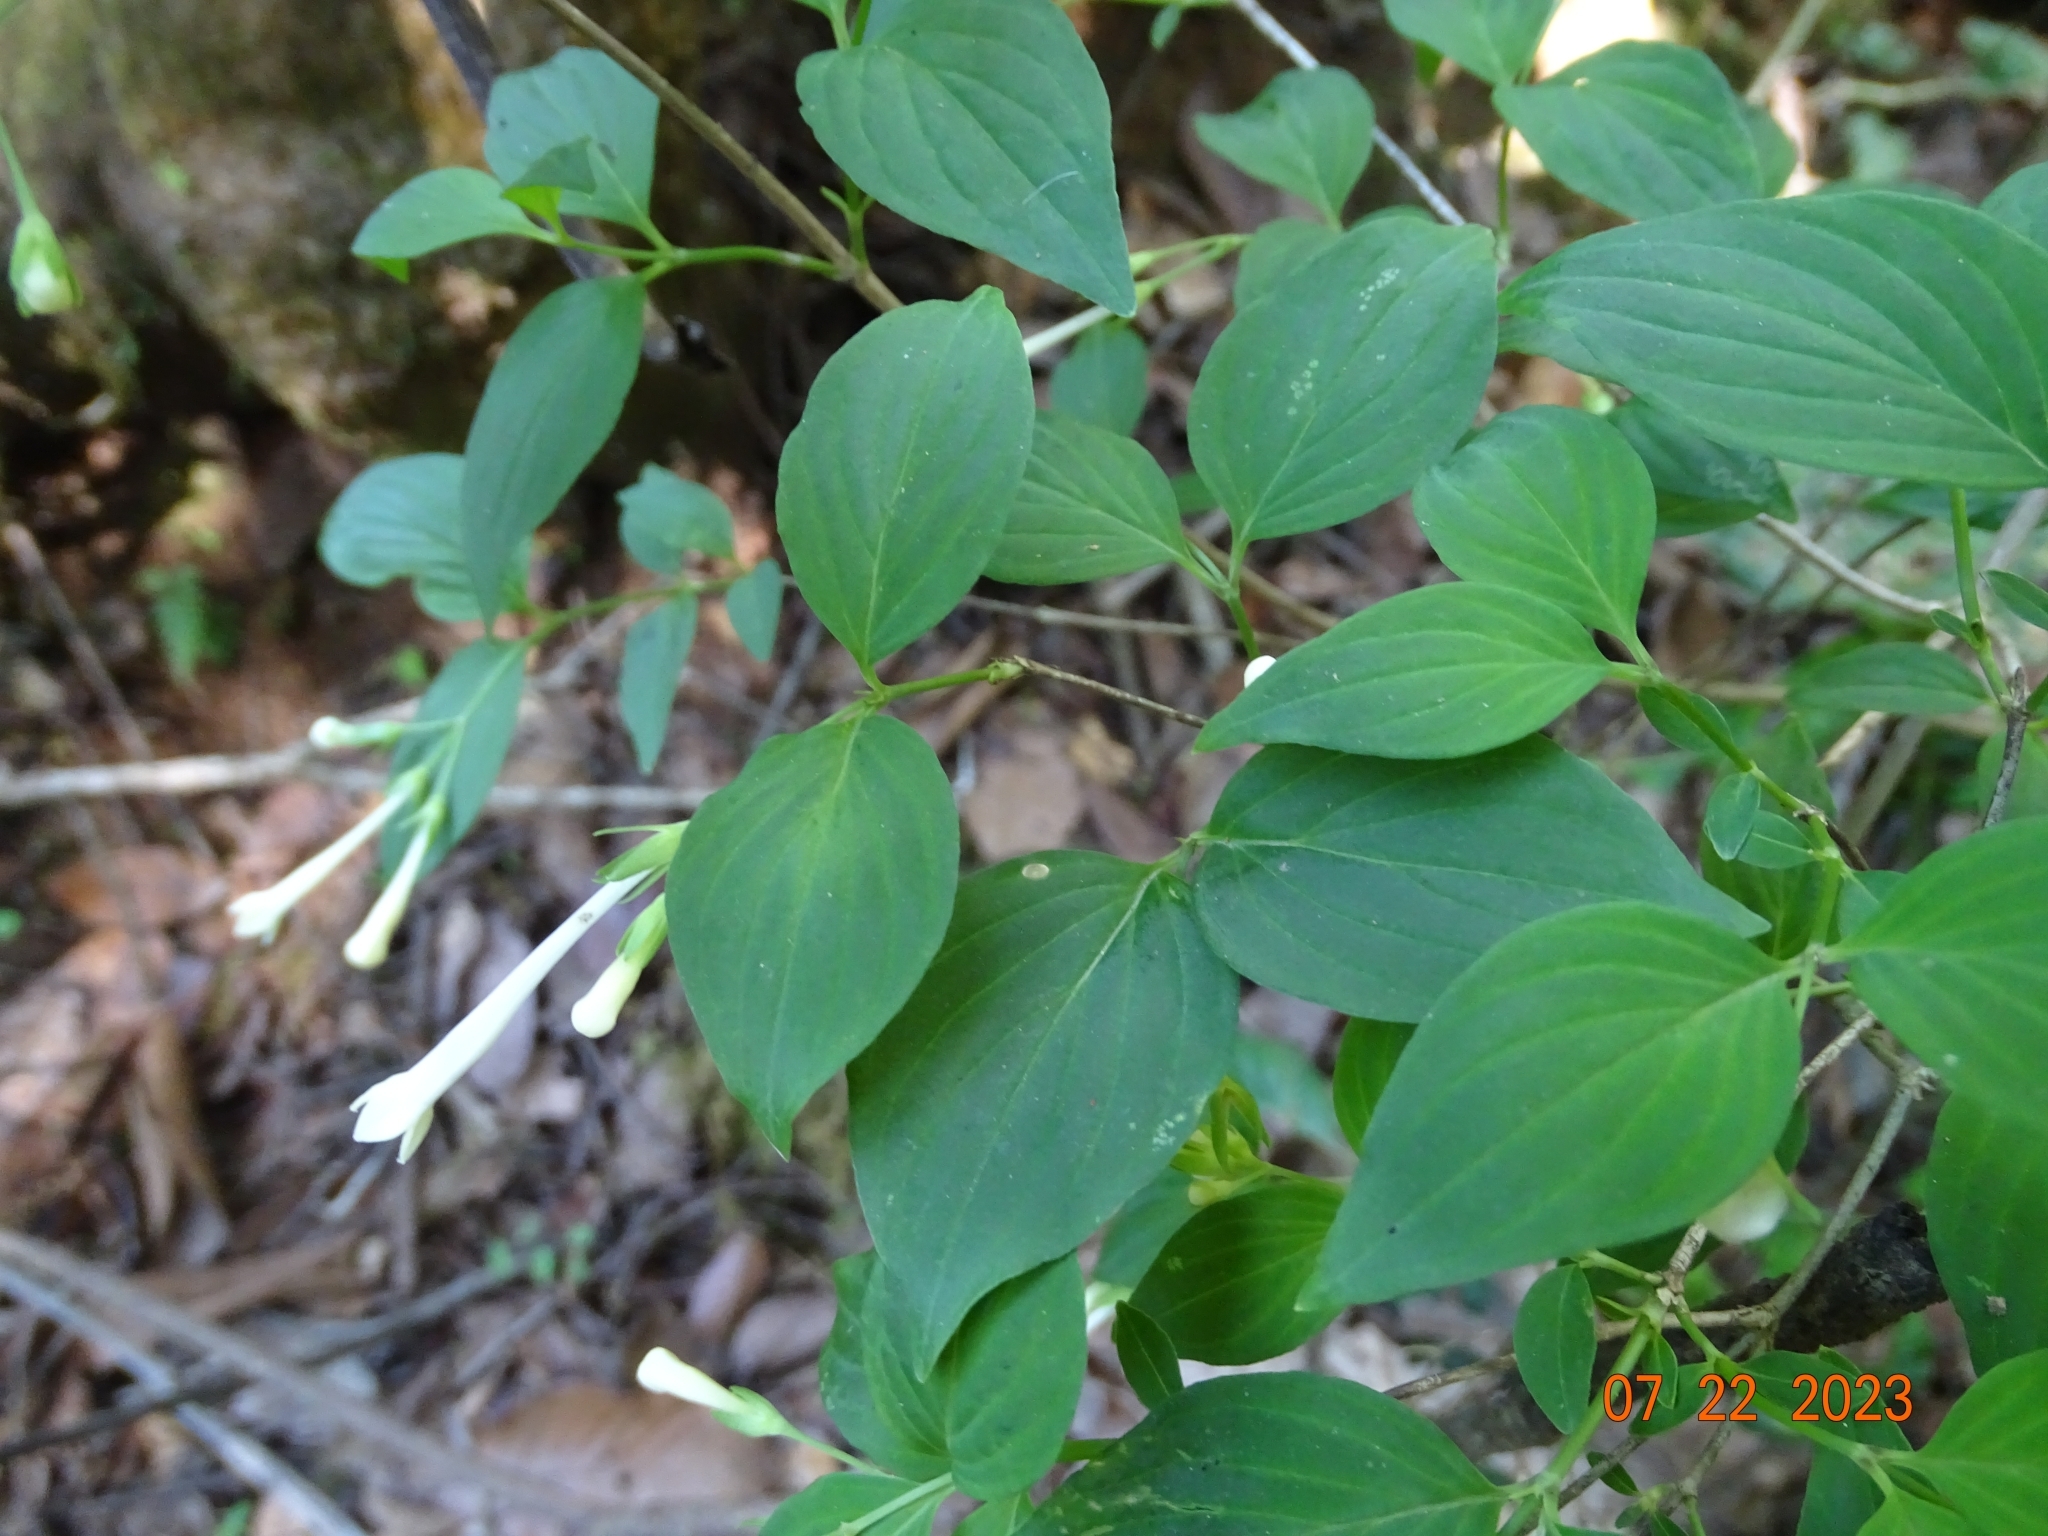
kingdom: Plantae
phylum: Tracheophyta
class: Magnoliopsida
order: Gentianales
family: Rubiaceae
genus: Bouvardia
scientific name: Bouvardia latifolia
